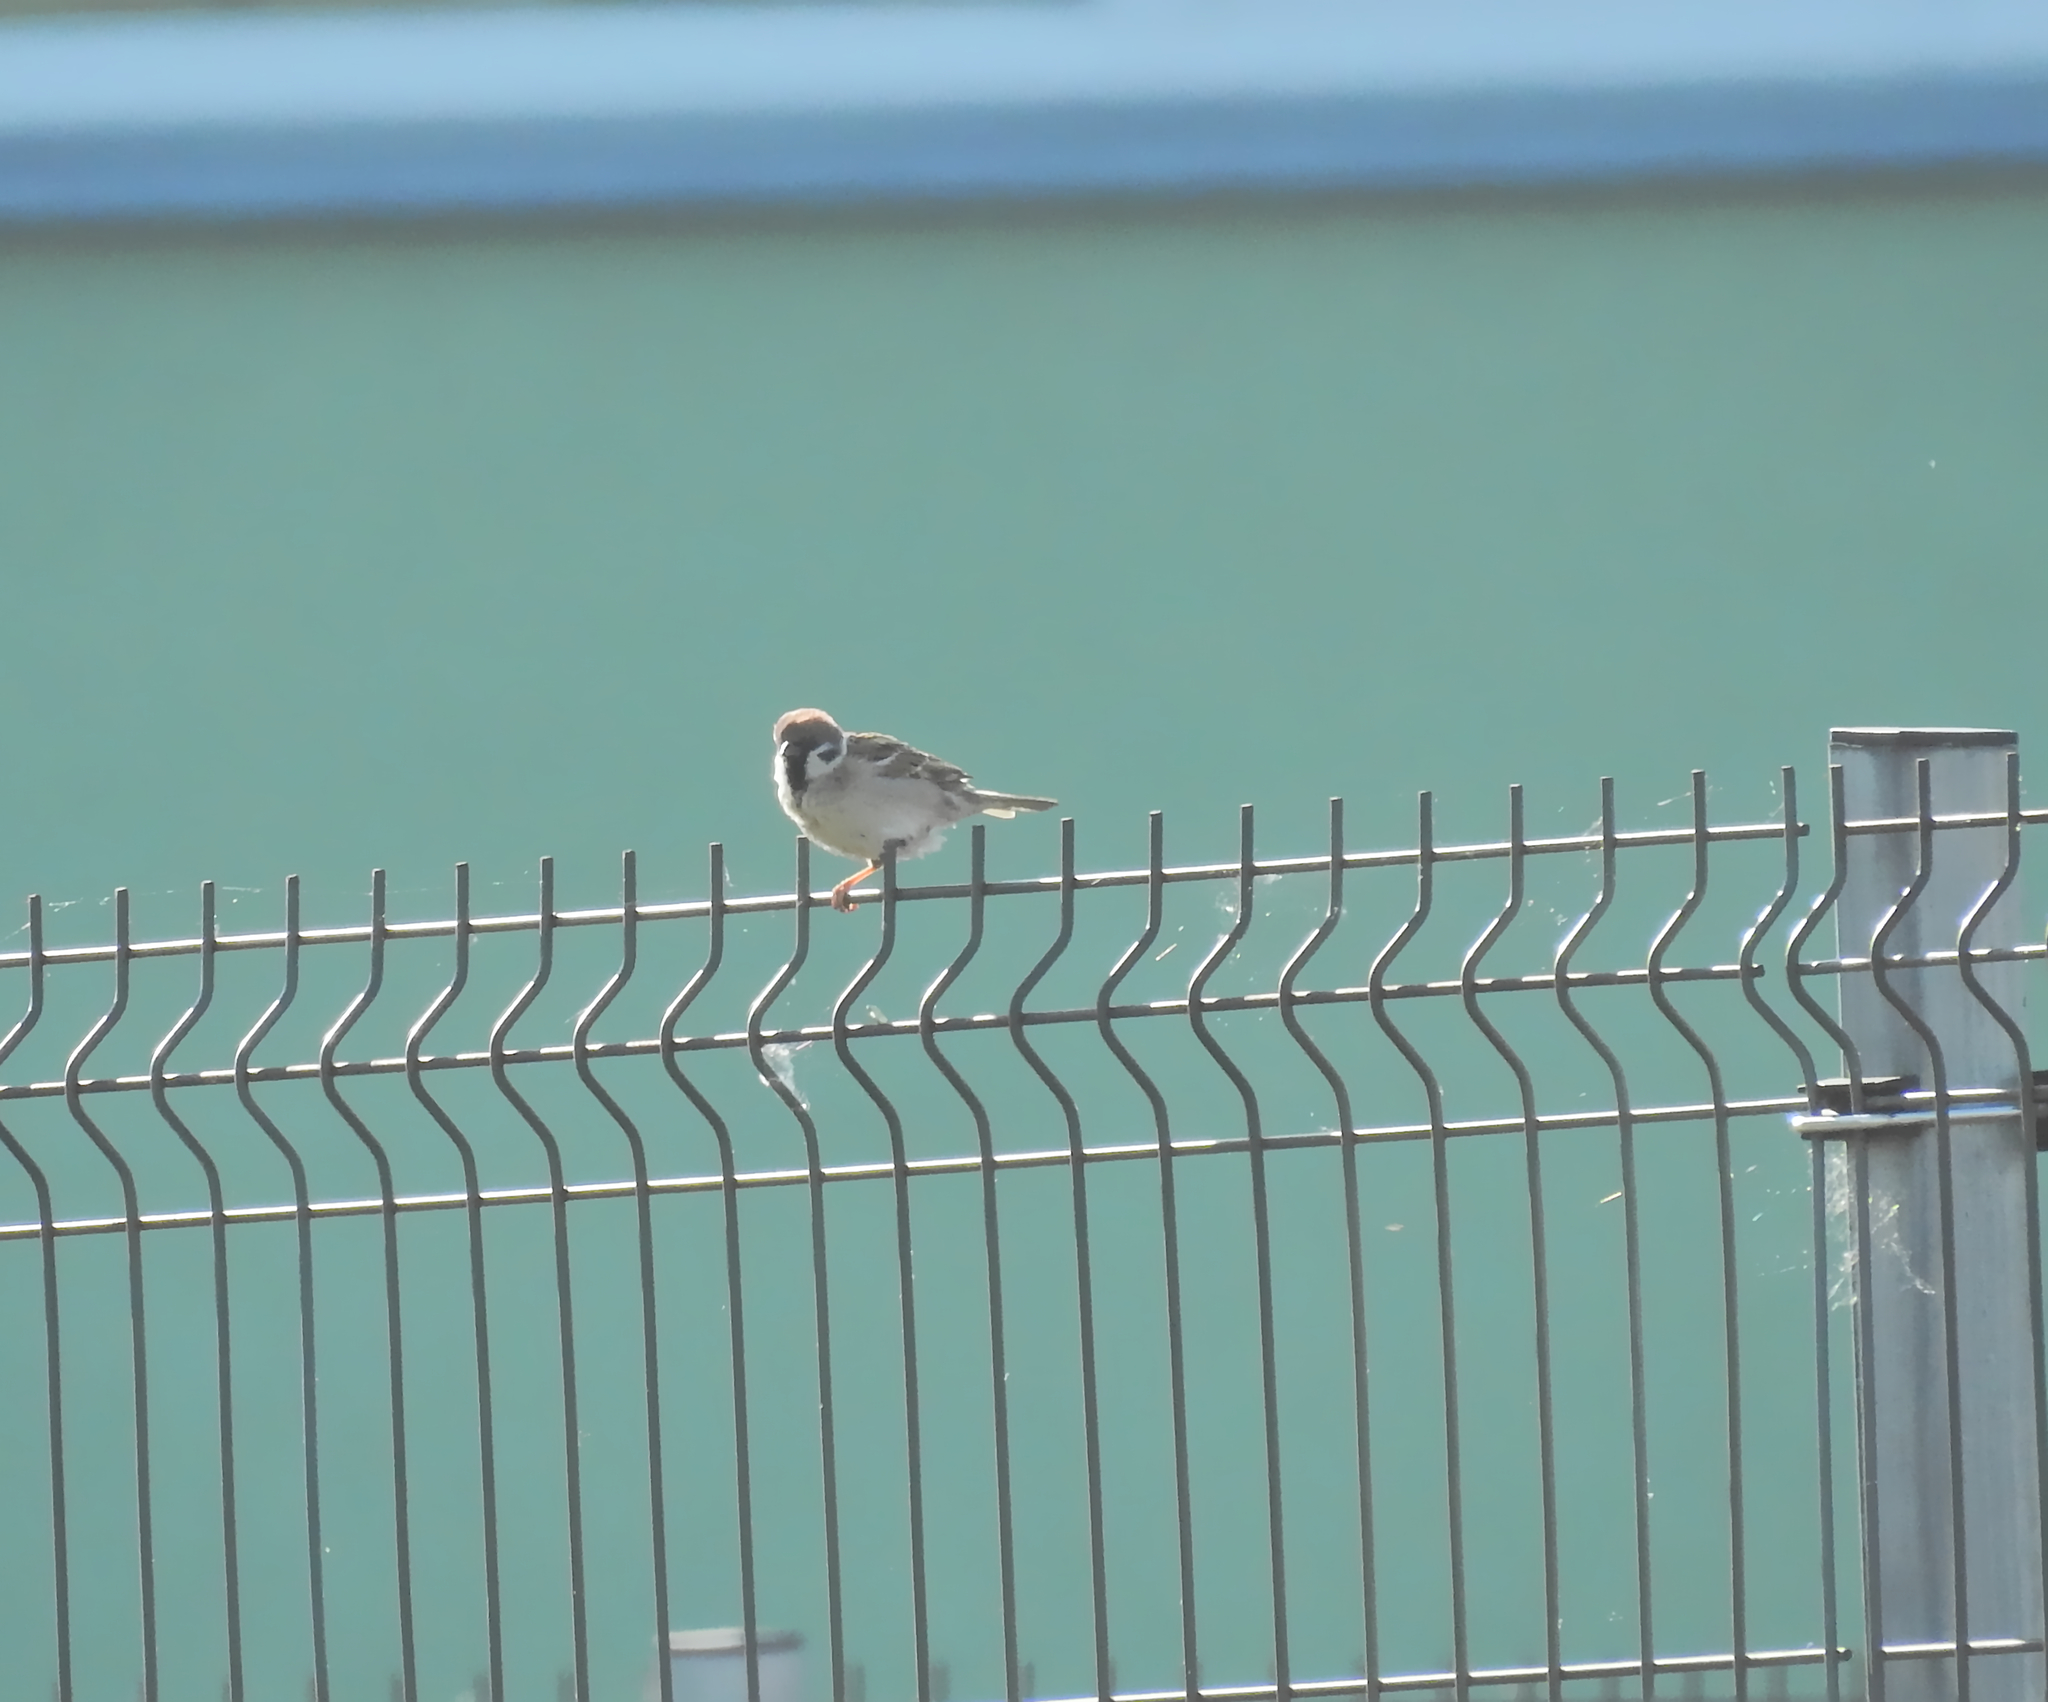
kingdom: Animalia
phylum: Chordata
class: Aves
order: Passeriformes
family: Passeridae
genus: Passer
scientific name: Passer montanus
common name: Eurasian tree sparrow
